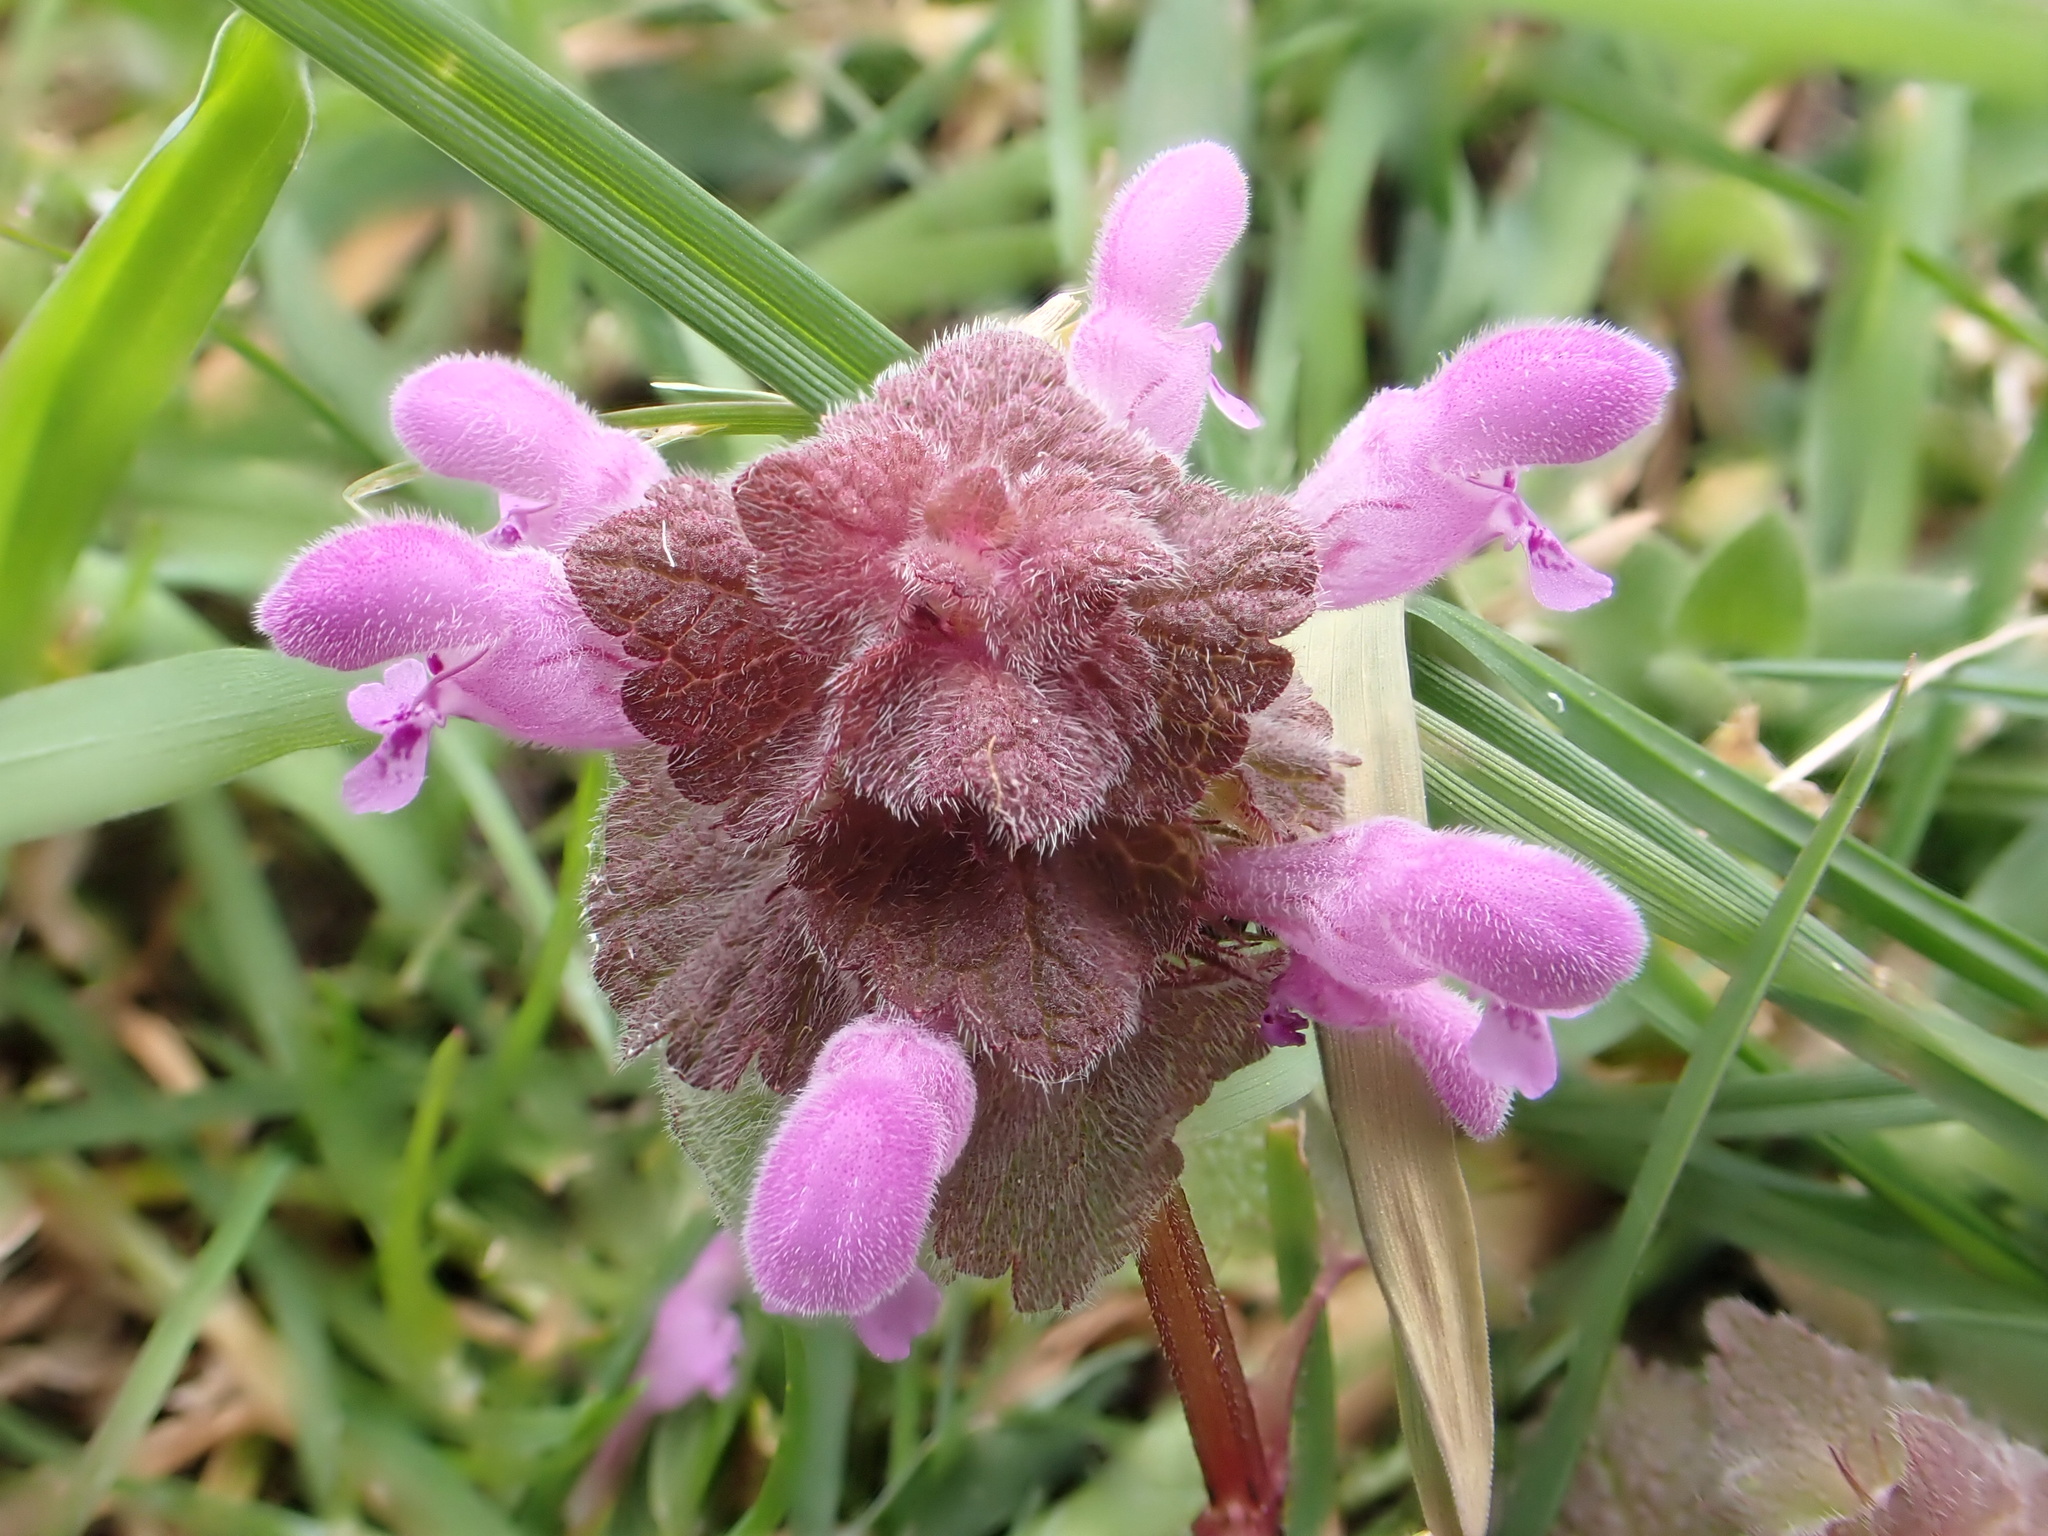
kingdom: Plantae
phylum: Tracheophyta
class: Magnoliopsida
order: Lamiales
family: Lamiaceae
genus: Lamium
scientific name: Lamium purpureum
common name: Red dead-nettle
